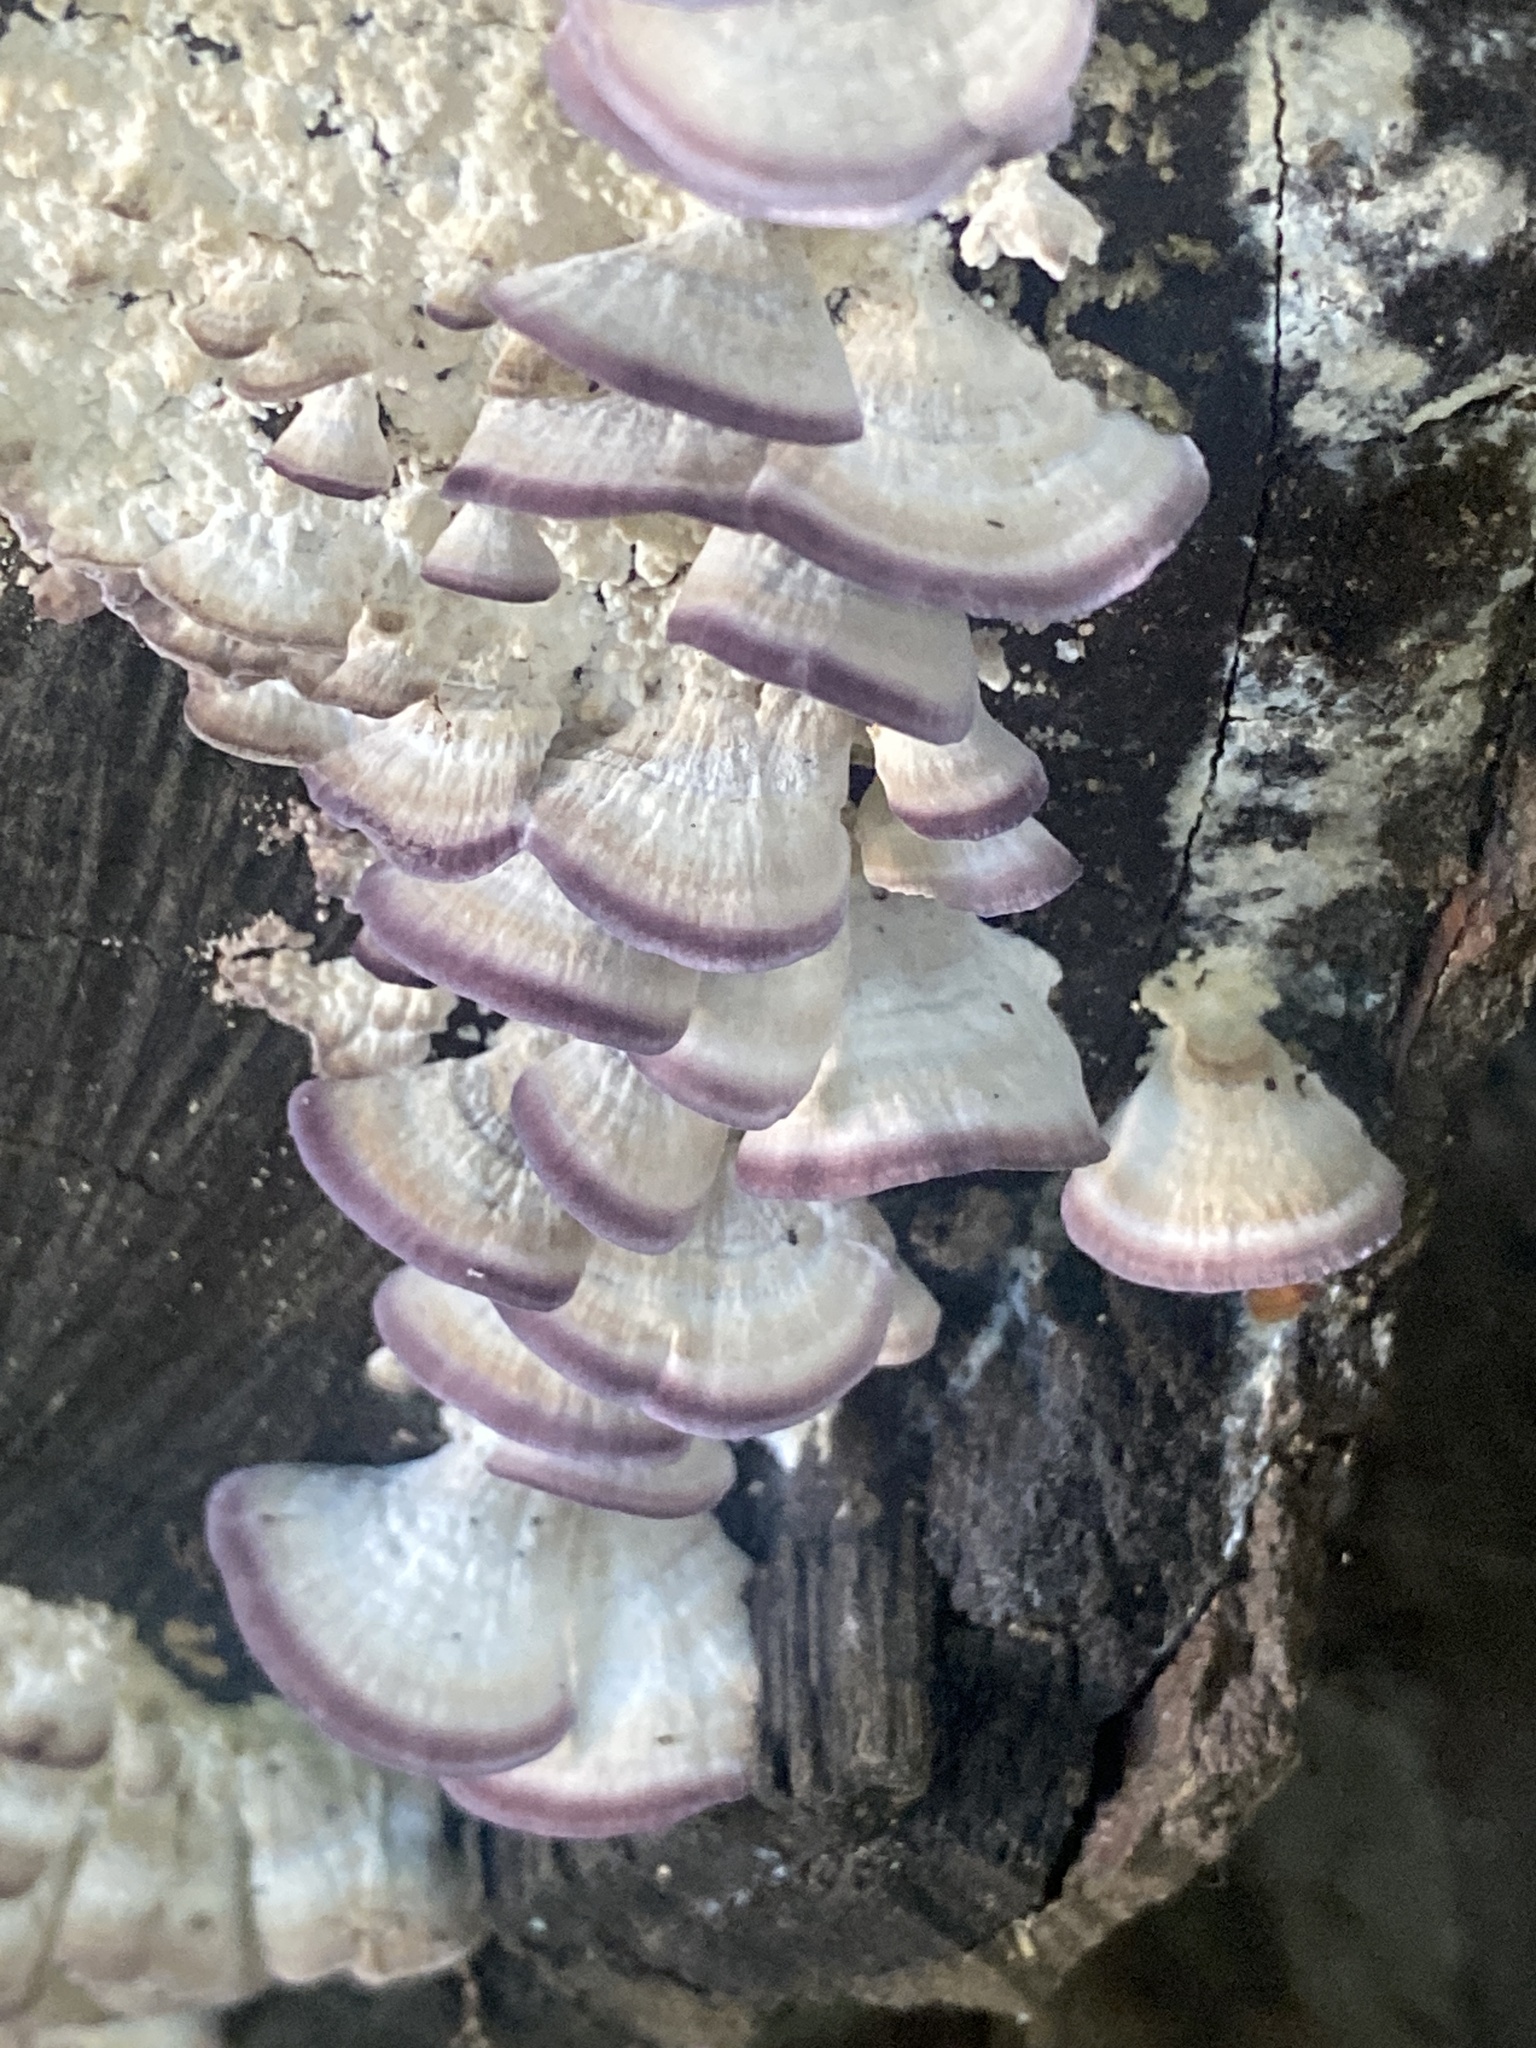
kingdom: Fungi
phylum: Basidiomycota
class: Agaricomycetes
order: Hymenochaetales
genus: Trichaptum
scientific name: Trichaptum biforme
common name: Violet-toothed polypore
